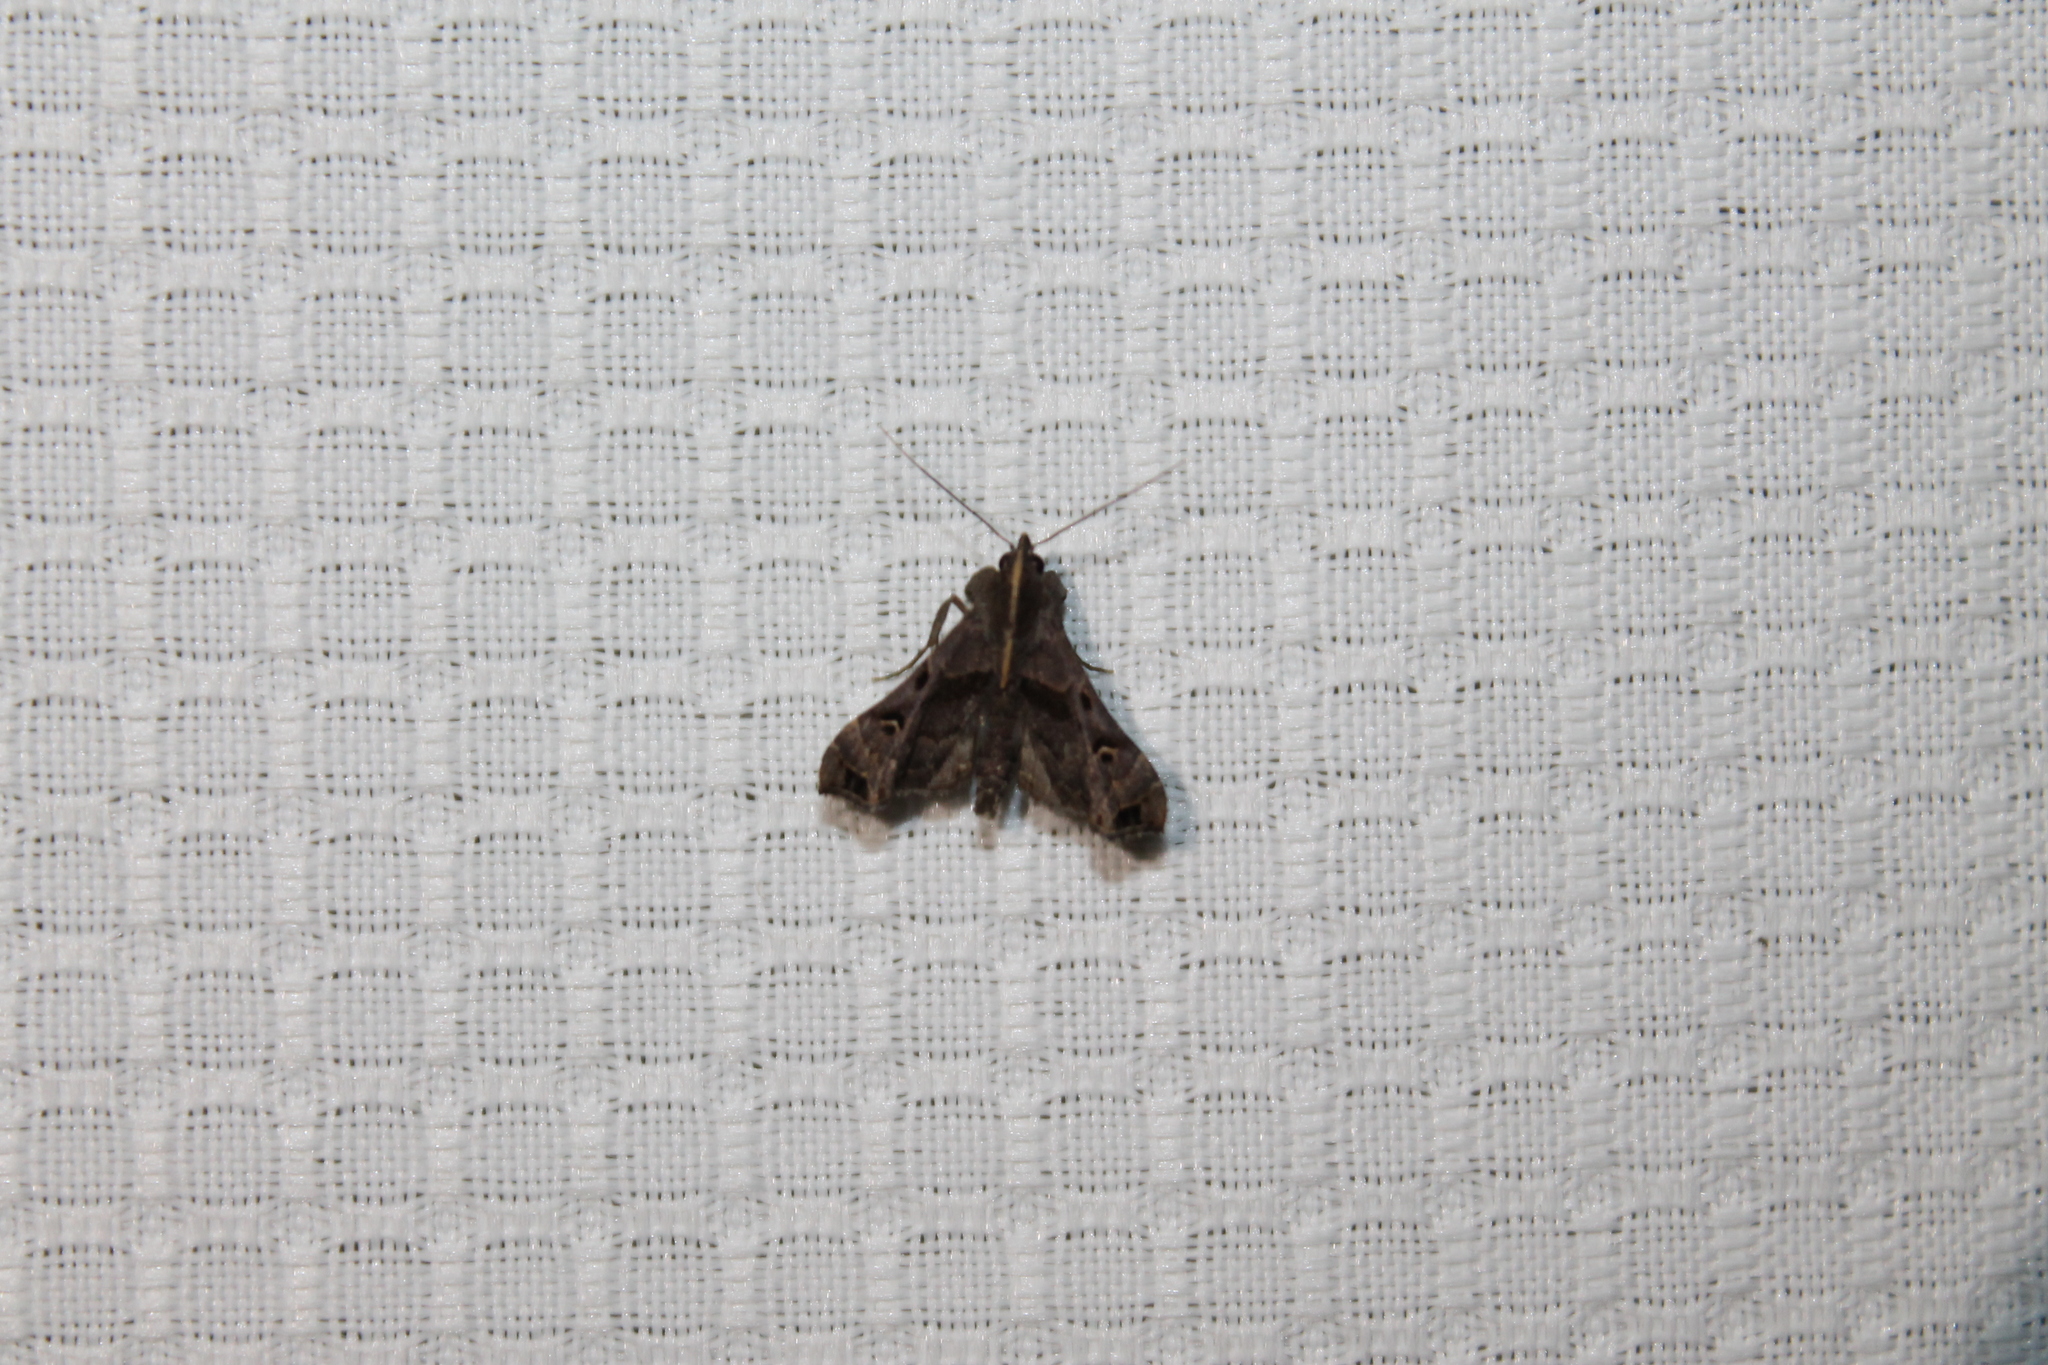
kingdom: Animalia
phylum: Arthropoda
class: Insecta
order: Lepidoptera
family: Erebidae
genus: Palthis
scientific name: Palthis asopialis
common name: Faint-spotted palthis moth
